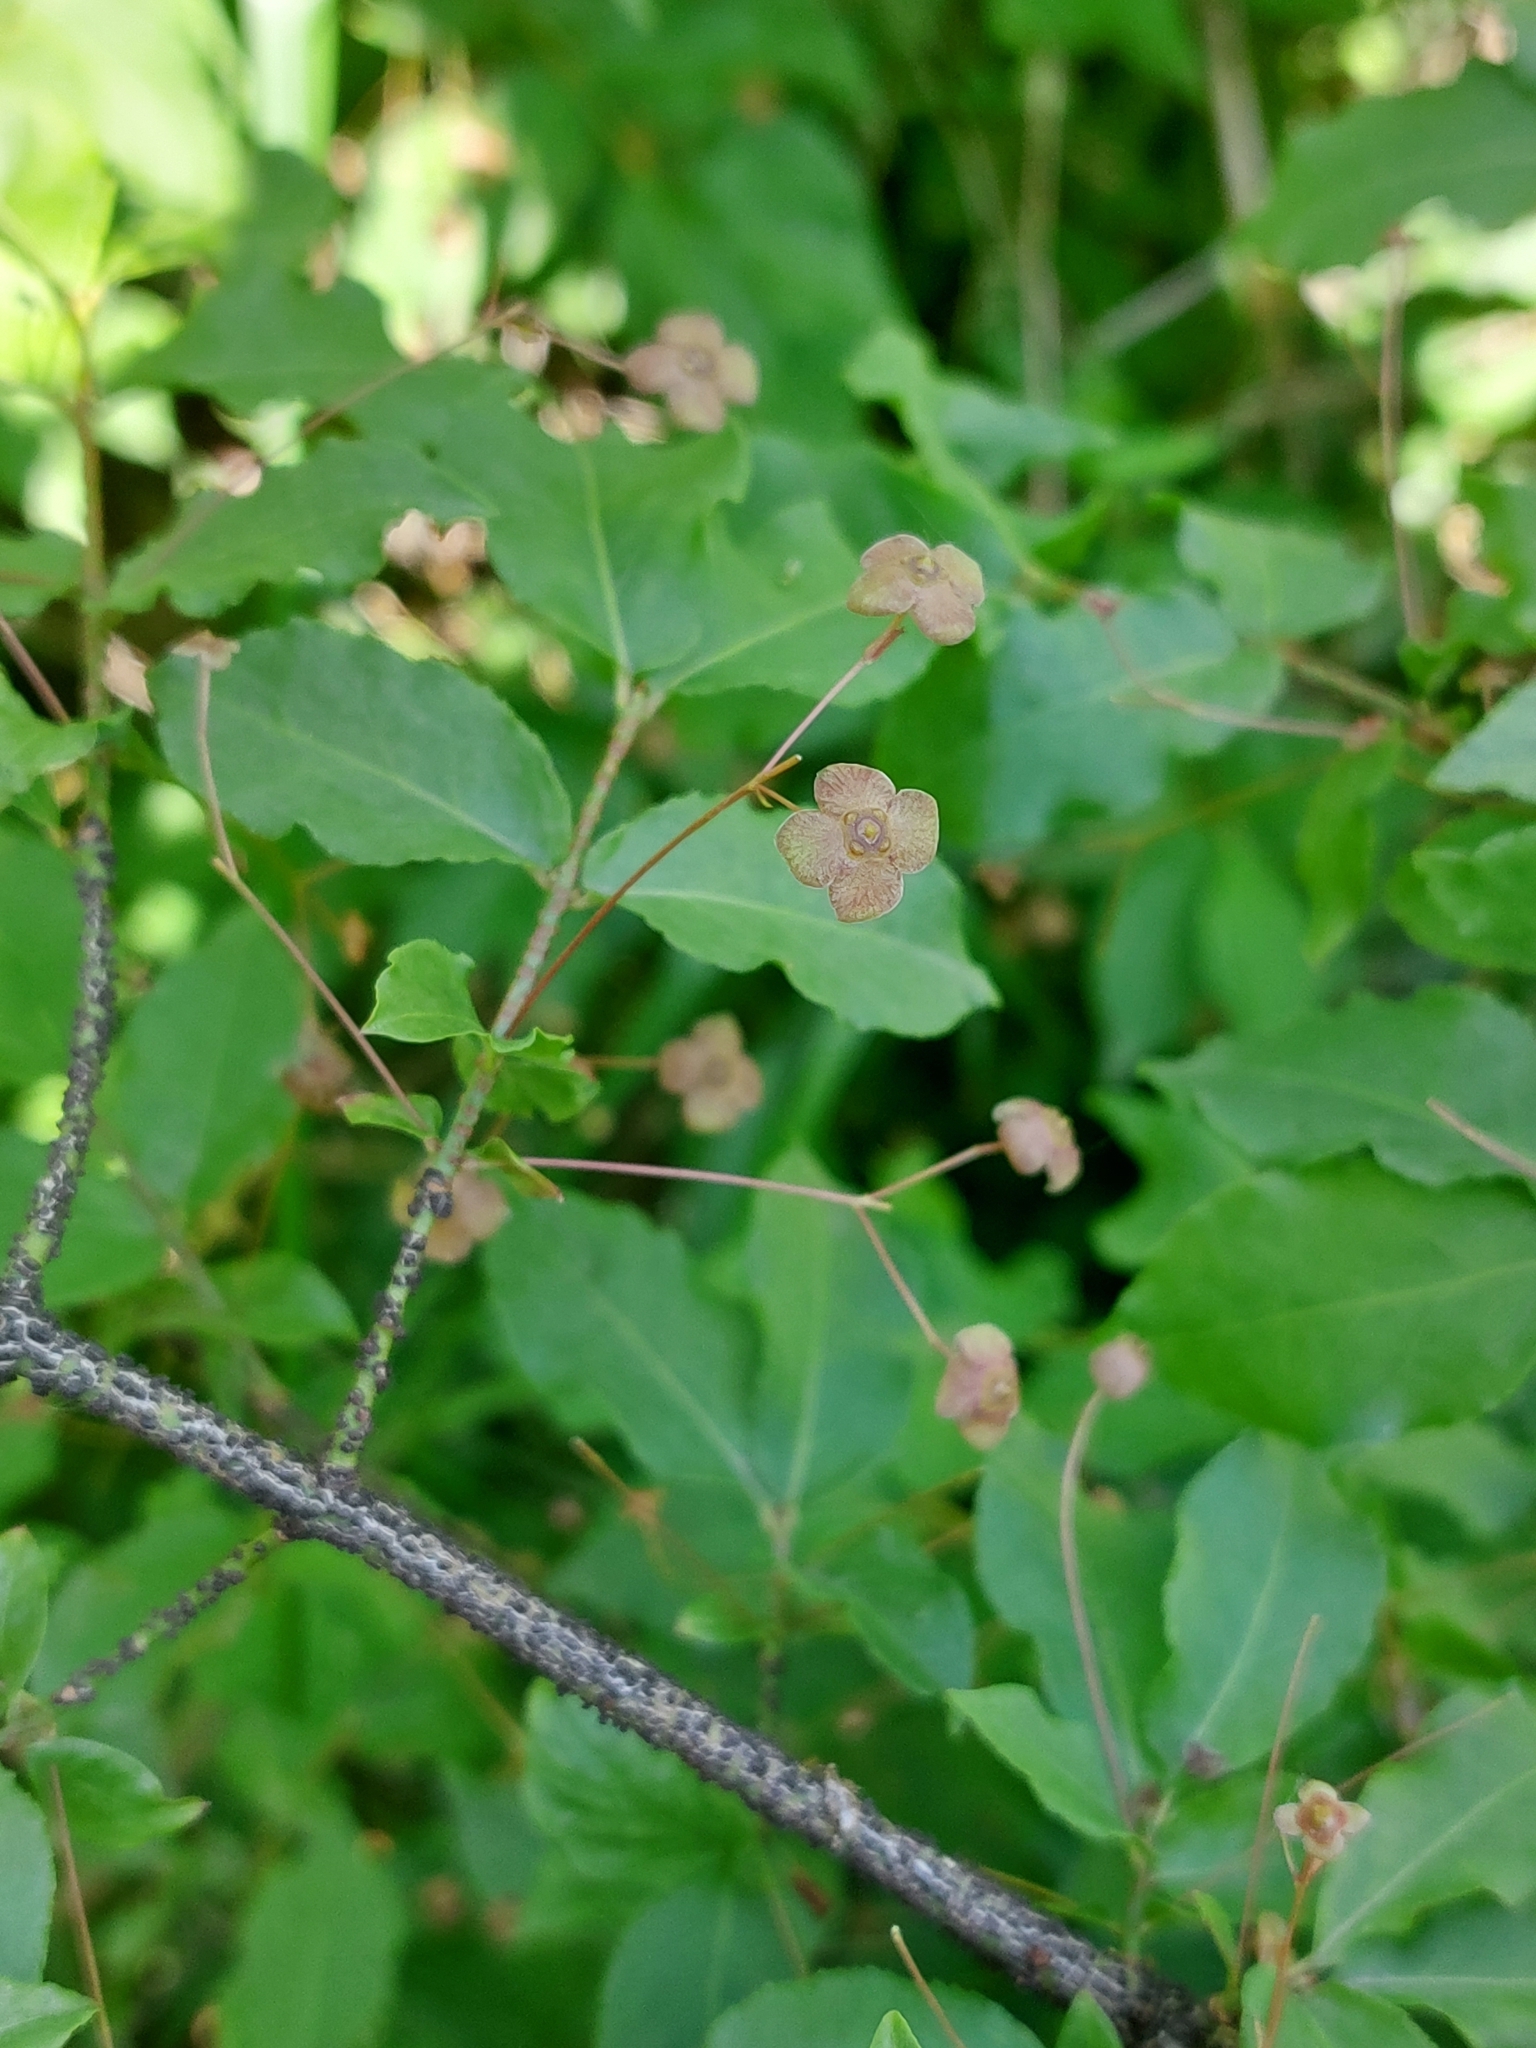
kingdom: Plantae
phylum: Tracheophyta
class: Magnoliopsida
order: Celastrales
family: Celastraceae
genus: Euonymus
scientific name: Euonymus verrucosus
